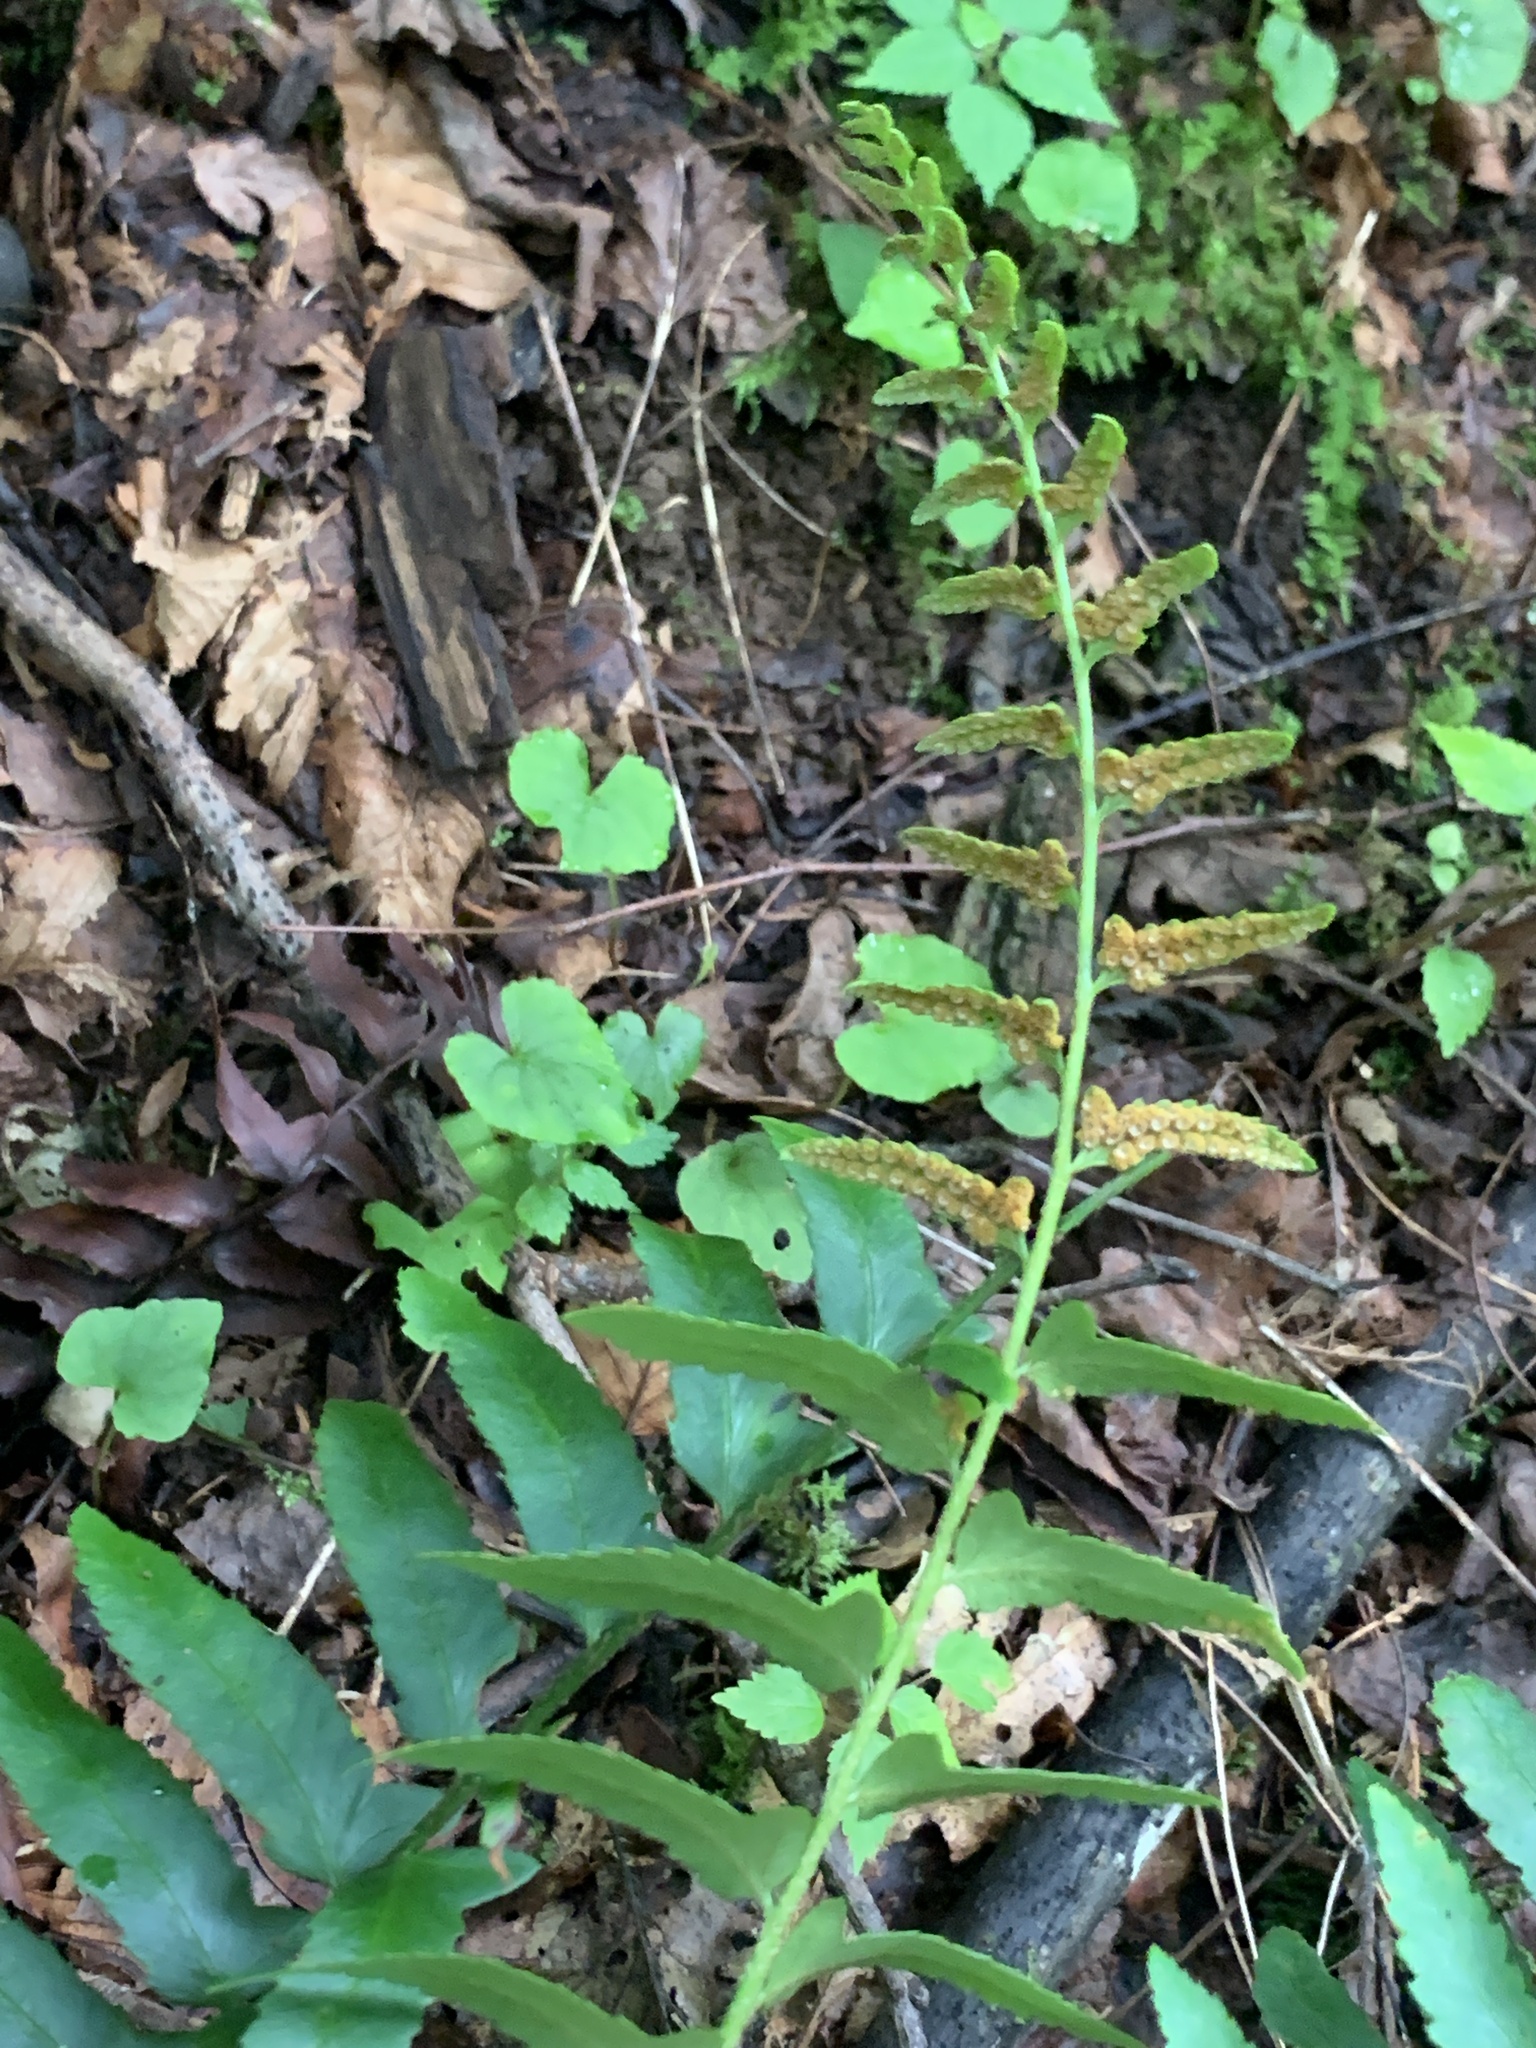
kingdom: Plantae
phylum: Tracheophyta
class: Polypodiopsida
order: Polypodiales
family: Dryopteridaceae
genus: Polystichum
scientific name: Polystichum acrostichoides
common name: Christmas fern
